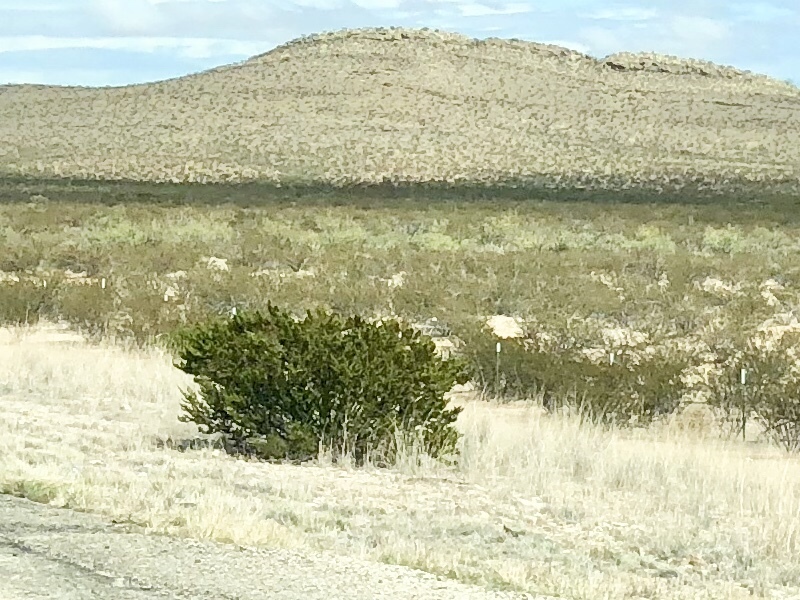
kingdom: Plantae
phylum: Tracheophyta
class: Magnoliopsida
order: Zygophyllales
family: Zygophyllaceae
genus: Larrea
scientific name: Larrea tridentata
